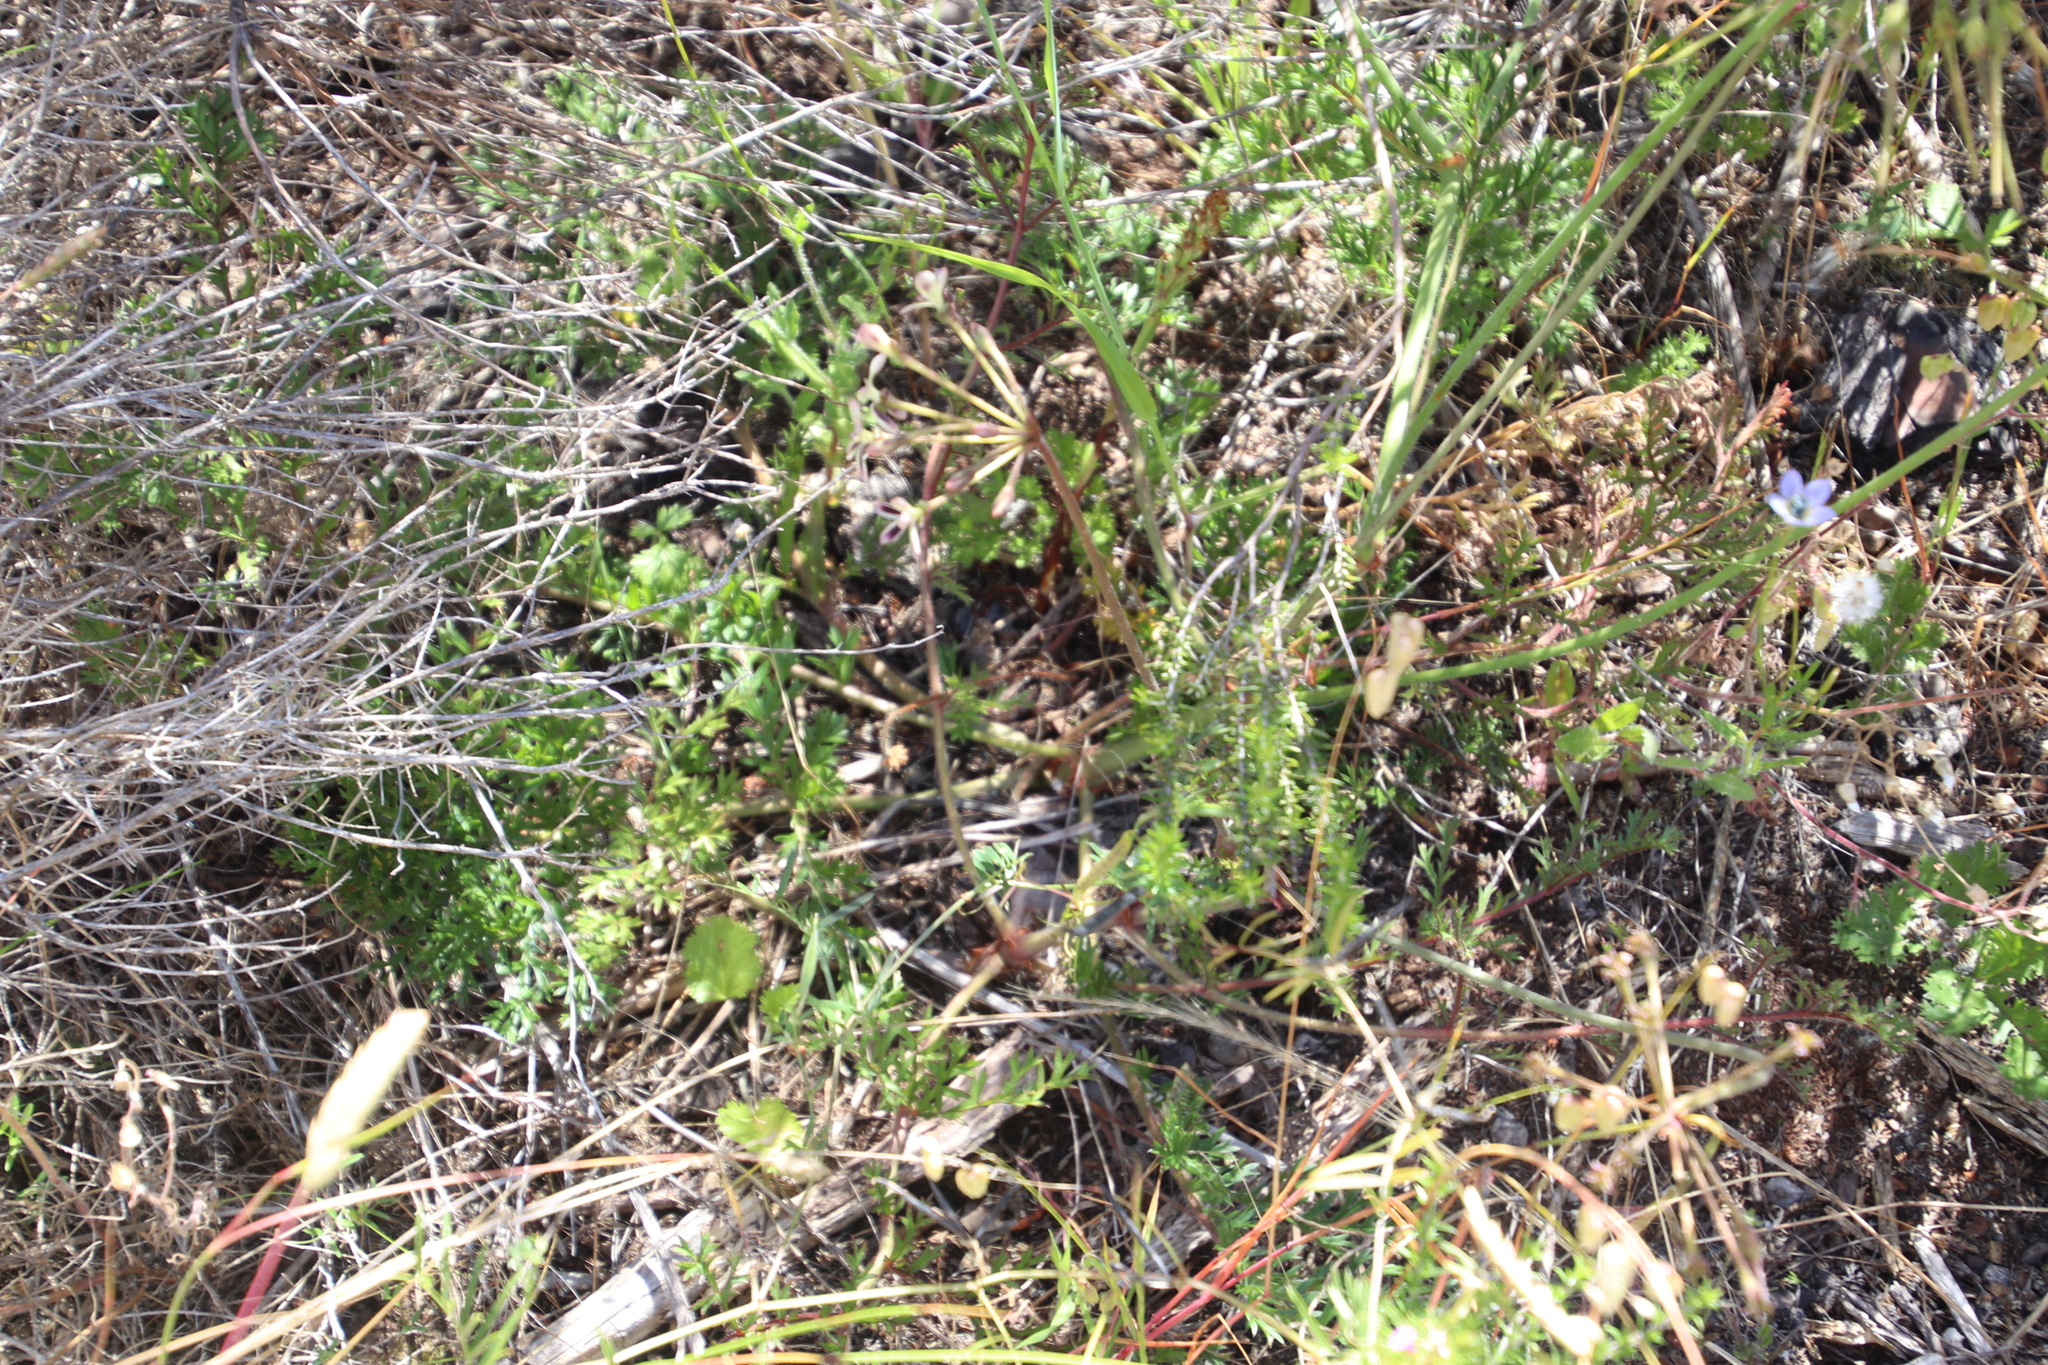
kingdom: Plantae
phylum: Tracheophyta
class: Magnoliopsida
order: Geraniales
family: Geraniaceae
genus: Pelargonium
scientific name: Pelargonium triste
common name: Night-scent pelargonium
